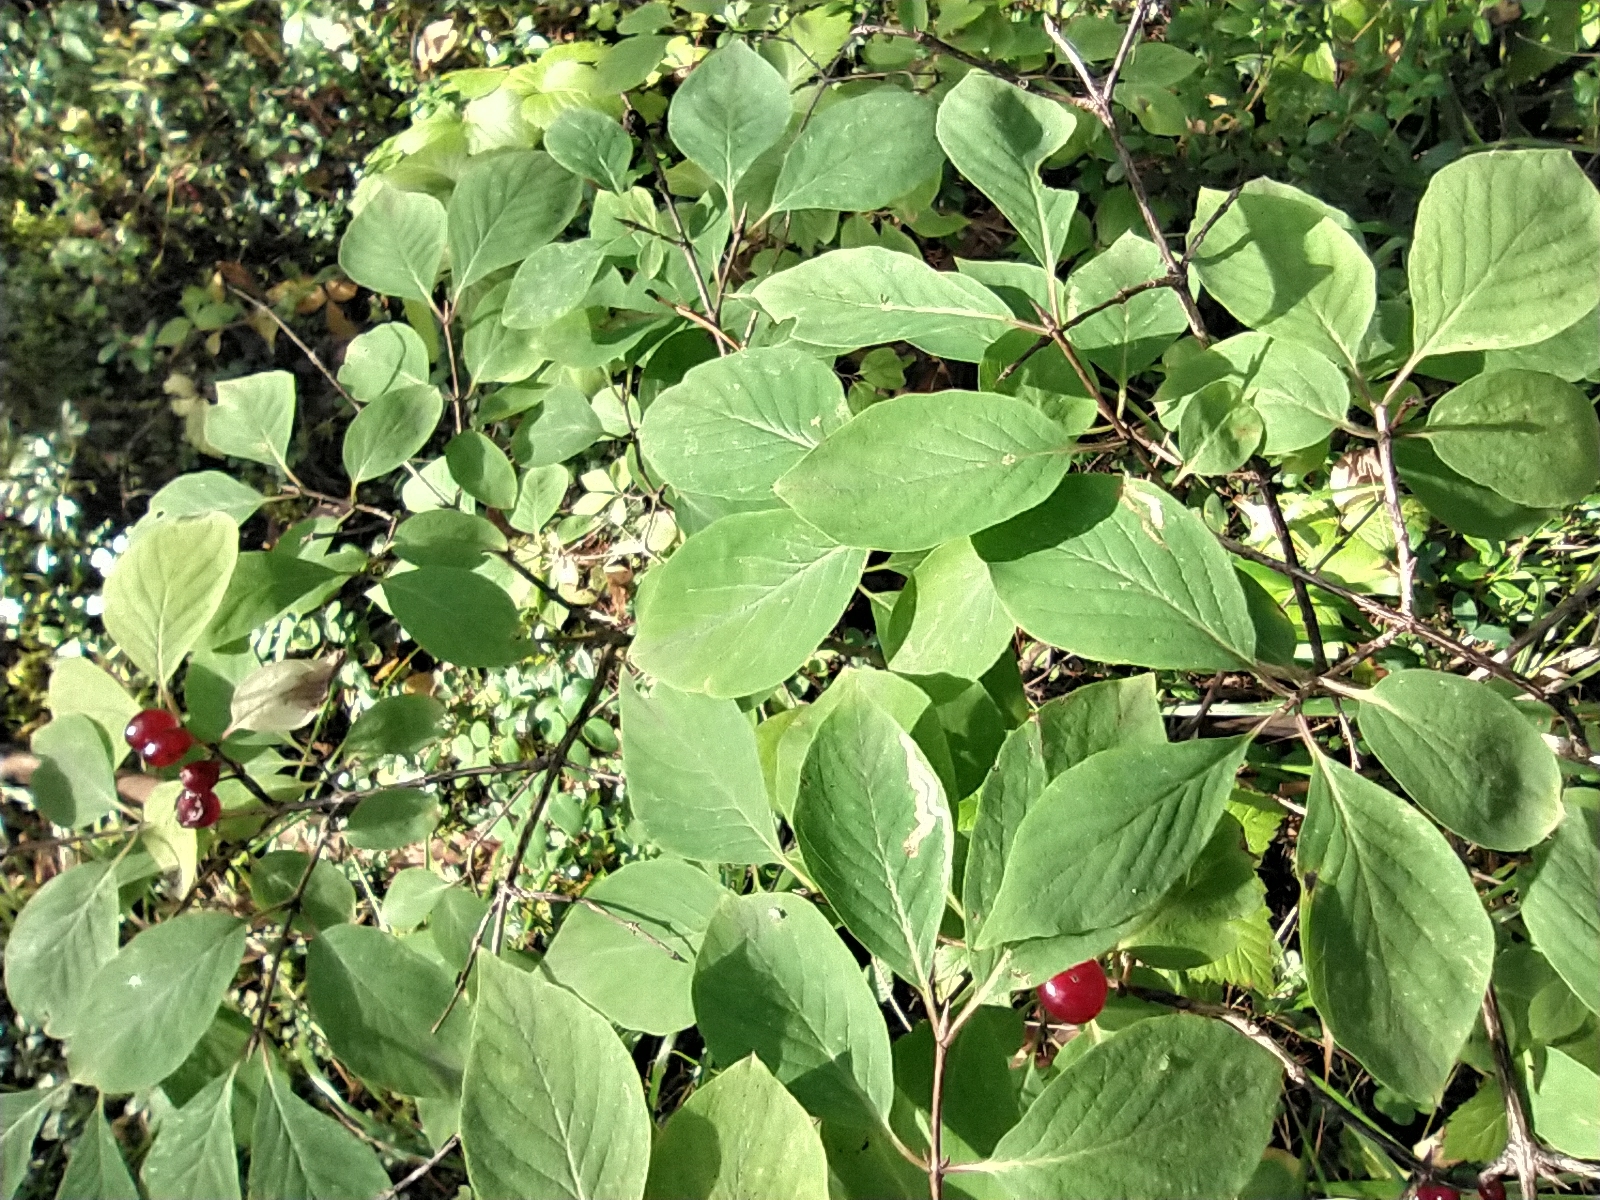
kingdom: Plantae
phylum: Tracheophyta
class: Magnoliopsida
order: Dipsacales
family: Caprifoliaceae
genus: Lonicera
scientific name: Lonicera xylosteum
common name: Fly honeysuckle
